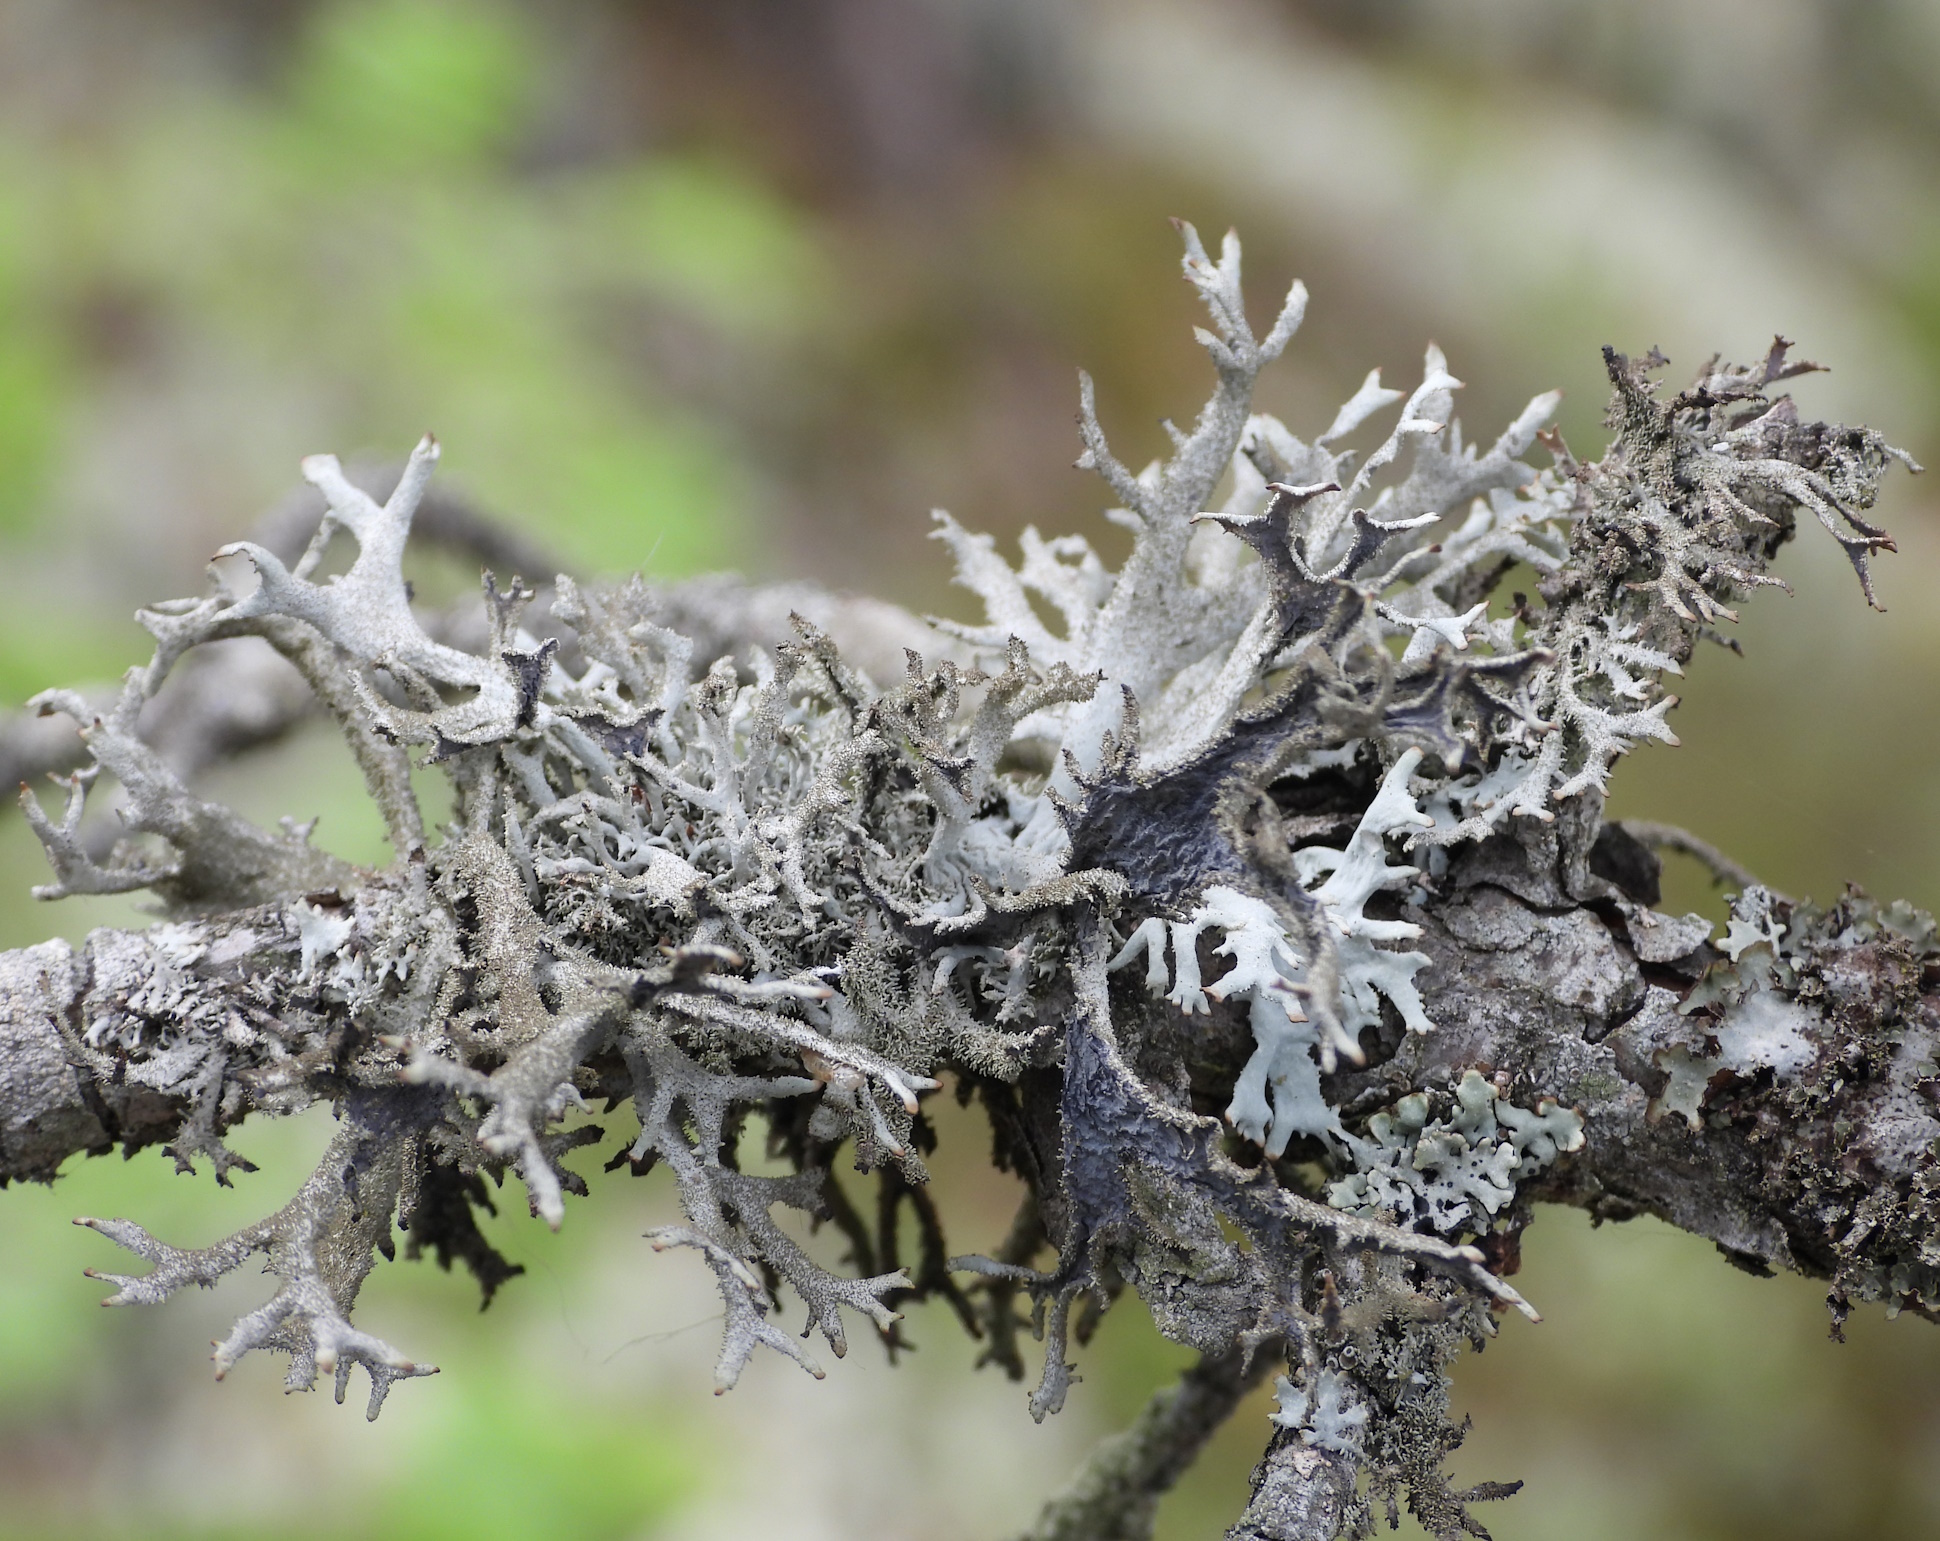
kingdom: Fungi
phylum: Ascomycota
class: Lecanoromycetes
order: Lecanorales
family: Parmeliaceae
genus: Pseudevernia
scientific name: Pseudevernia furfuracea
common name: Tree moss
